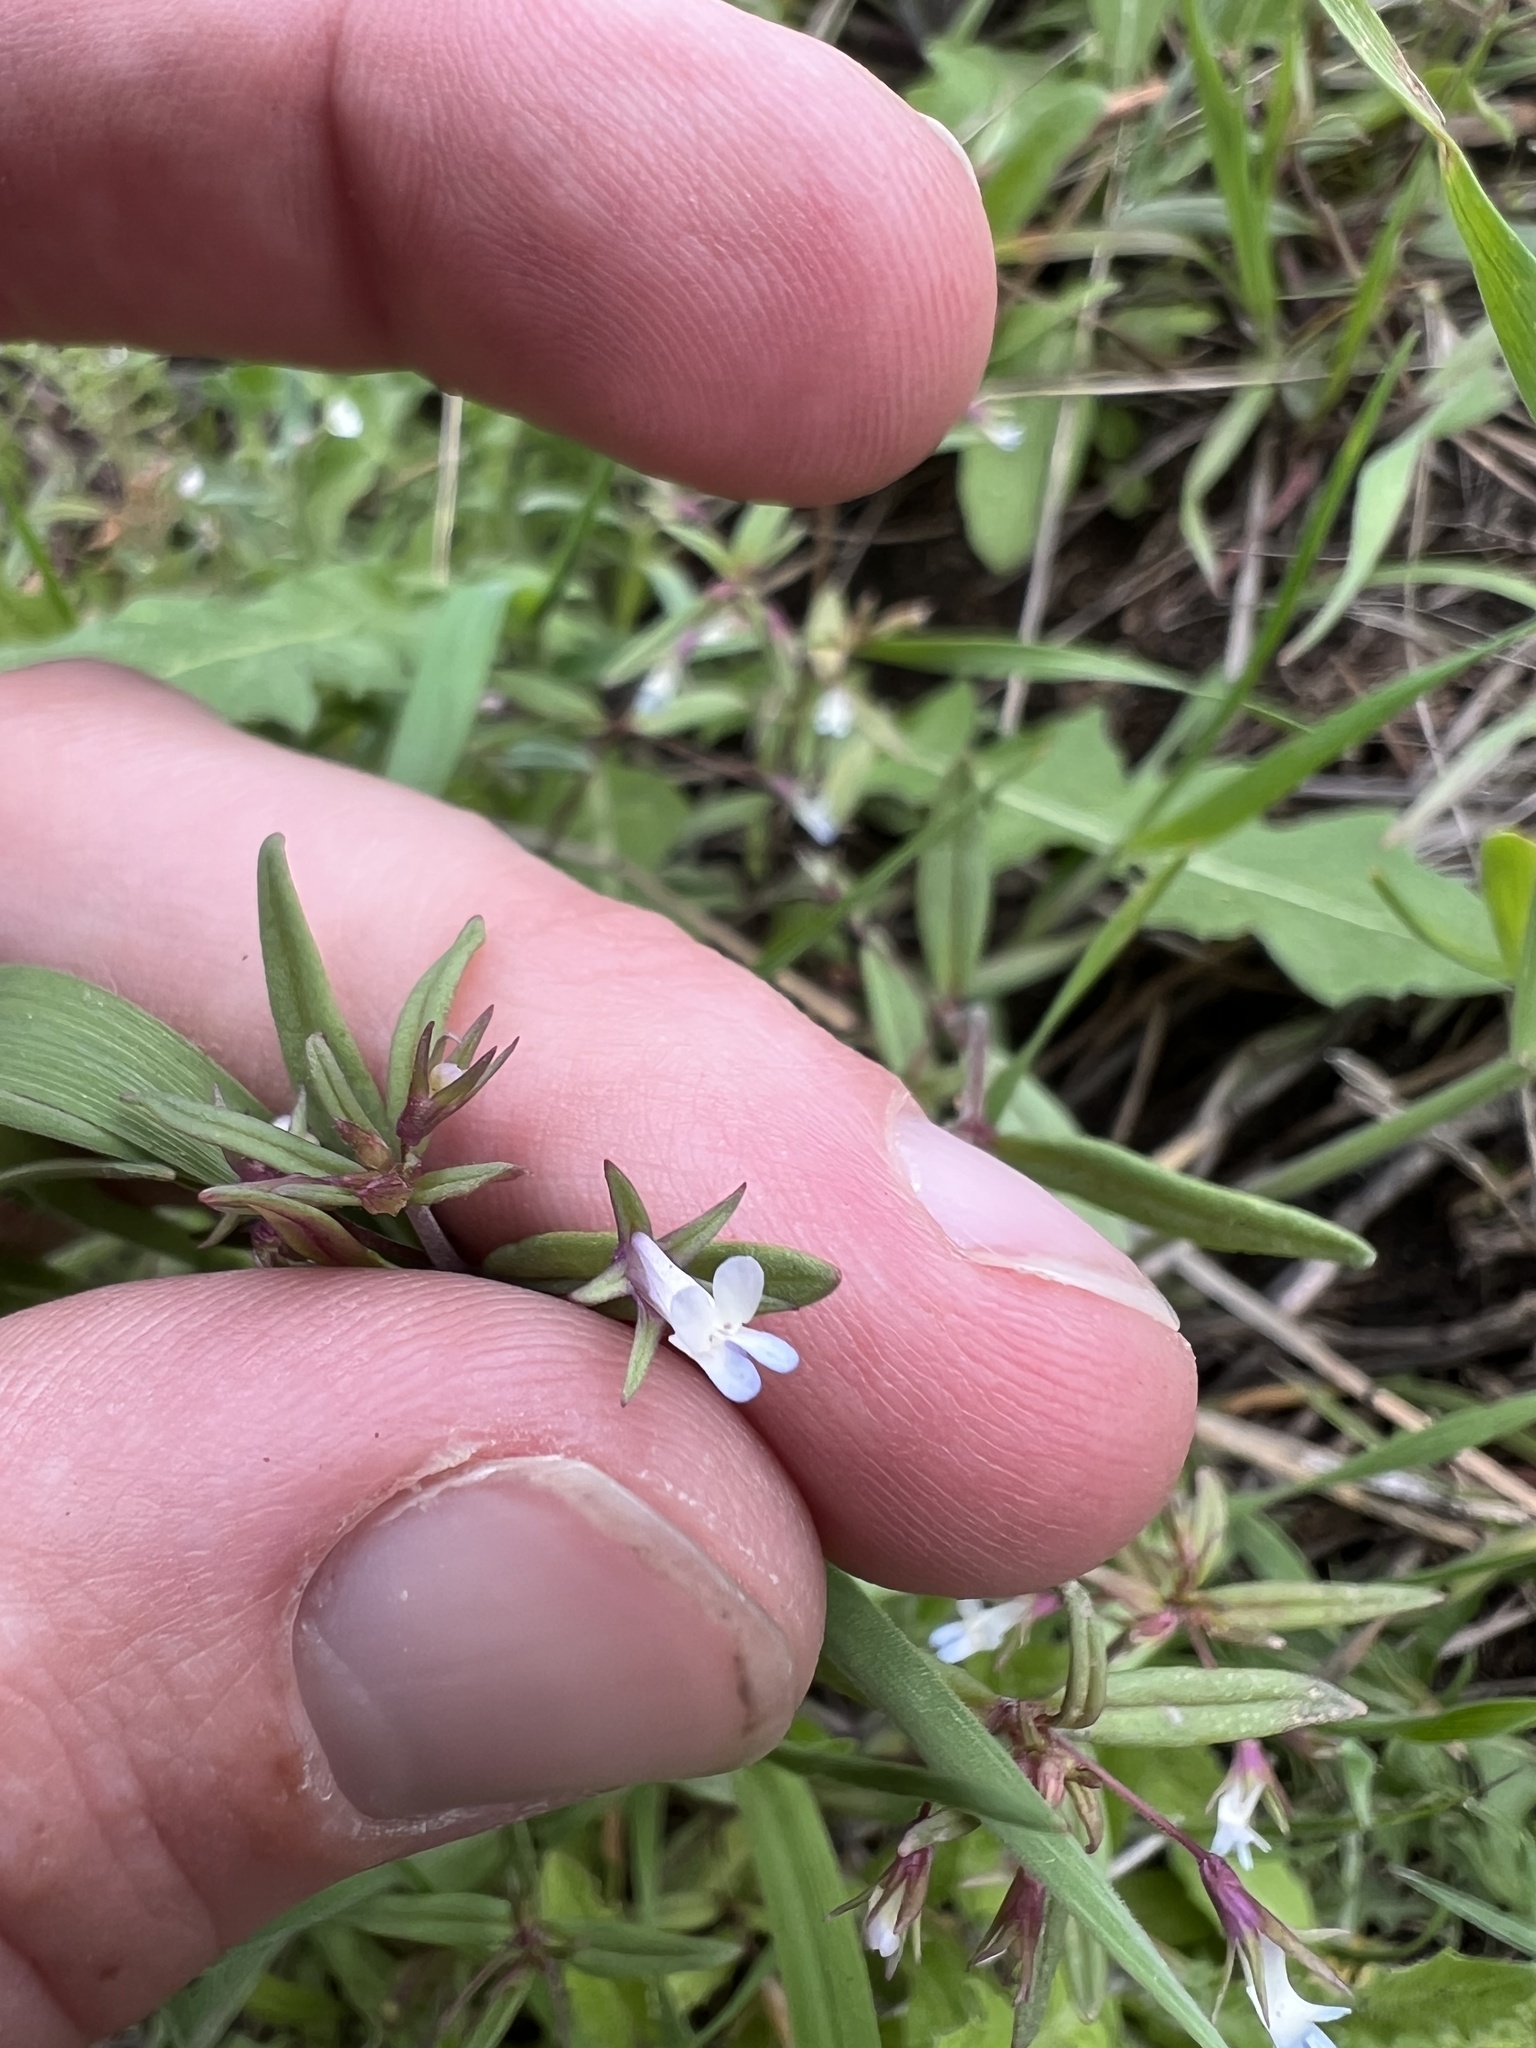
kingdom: Plantae
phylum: Tracheophyta
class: Magnoliopsida
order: Lamiales
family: Plantaginaceae
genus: Collinsia
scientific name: Collinsia parviflora
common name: Blue-lips
